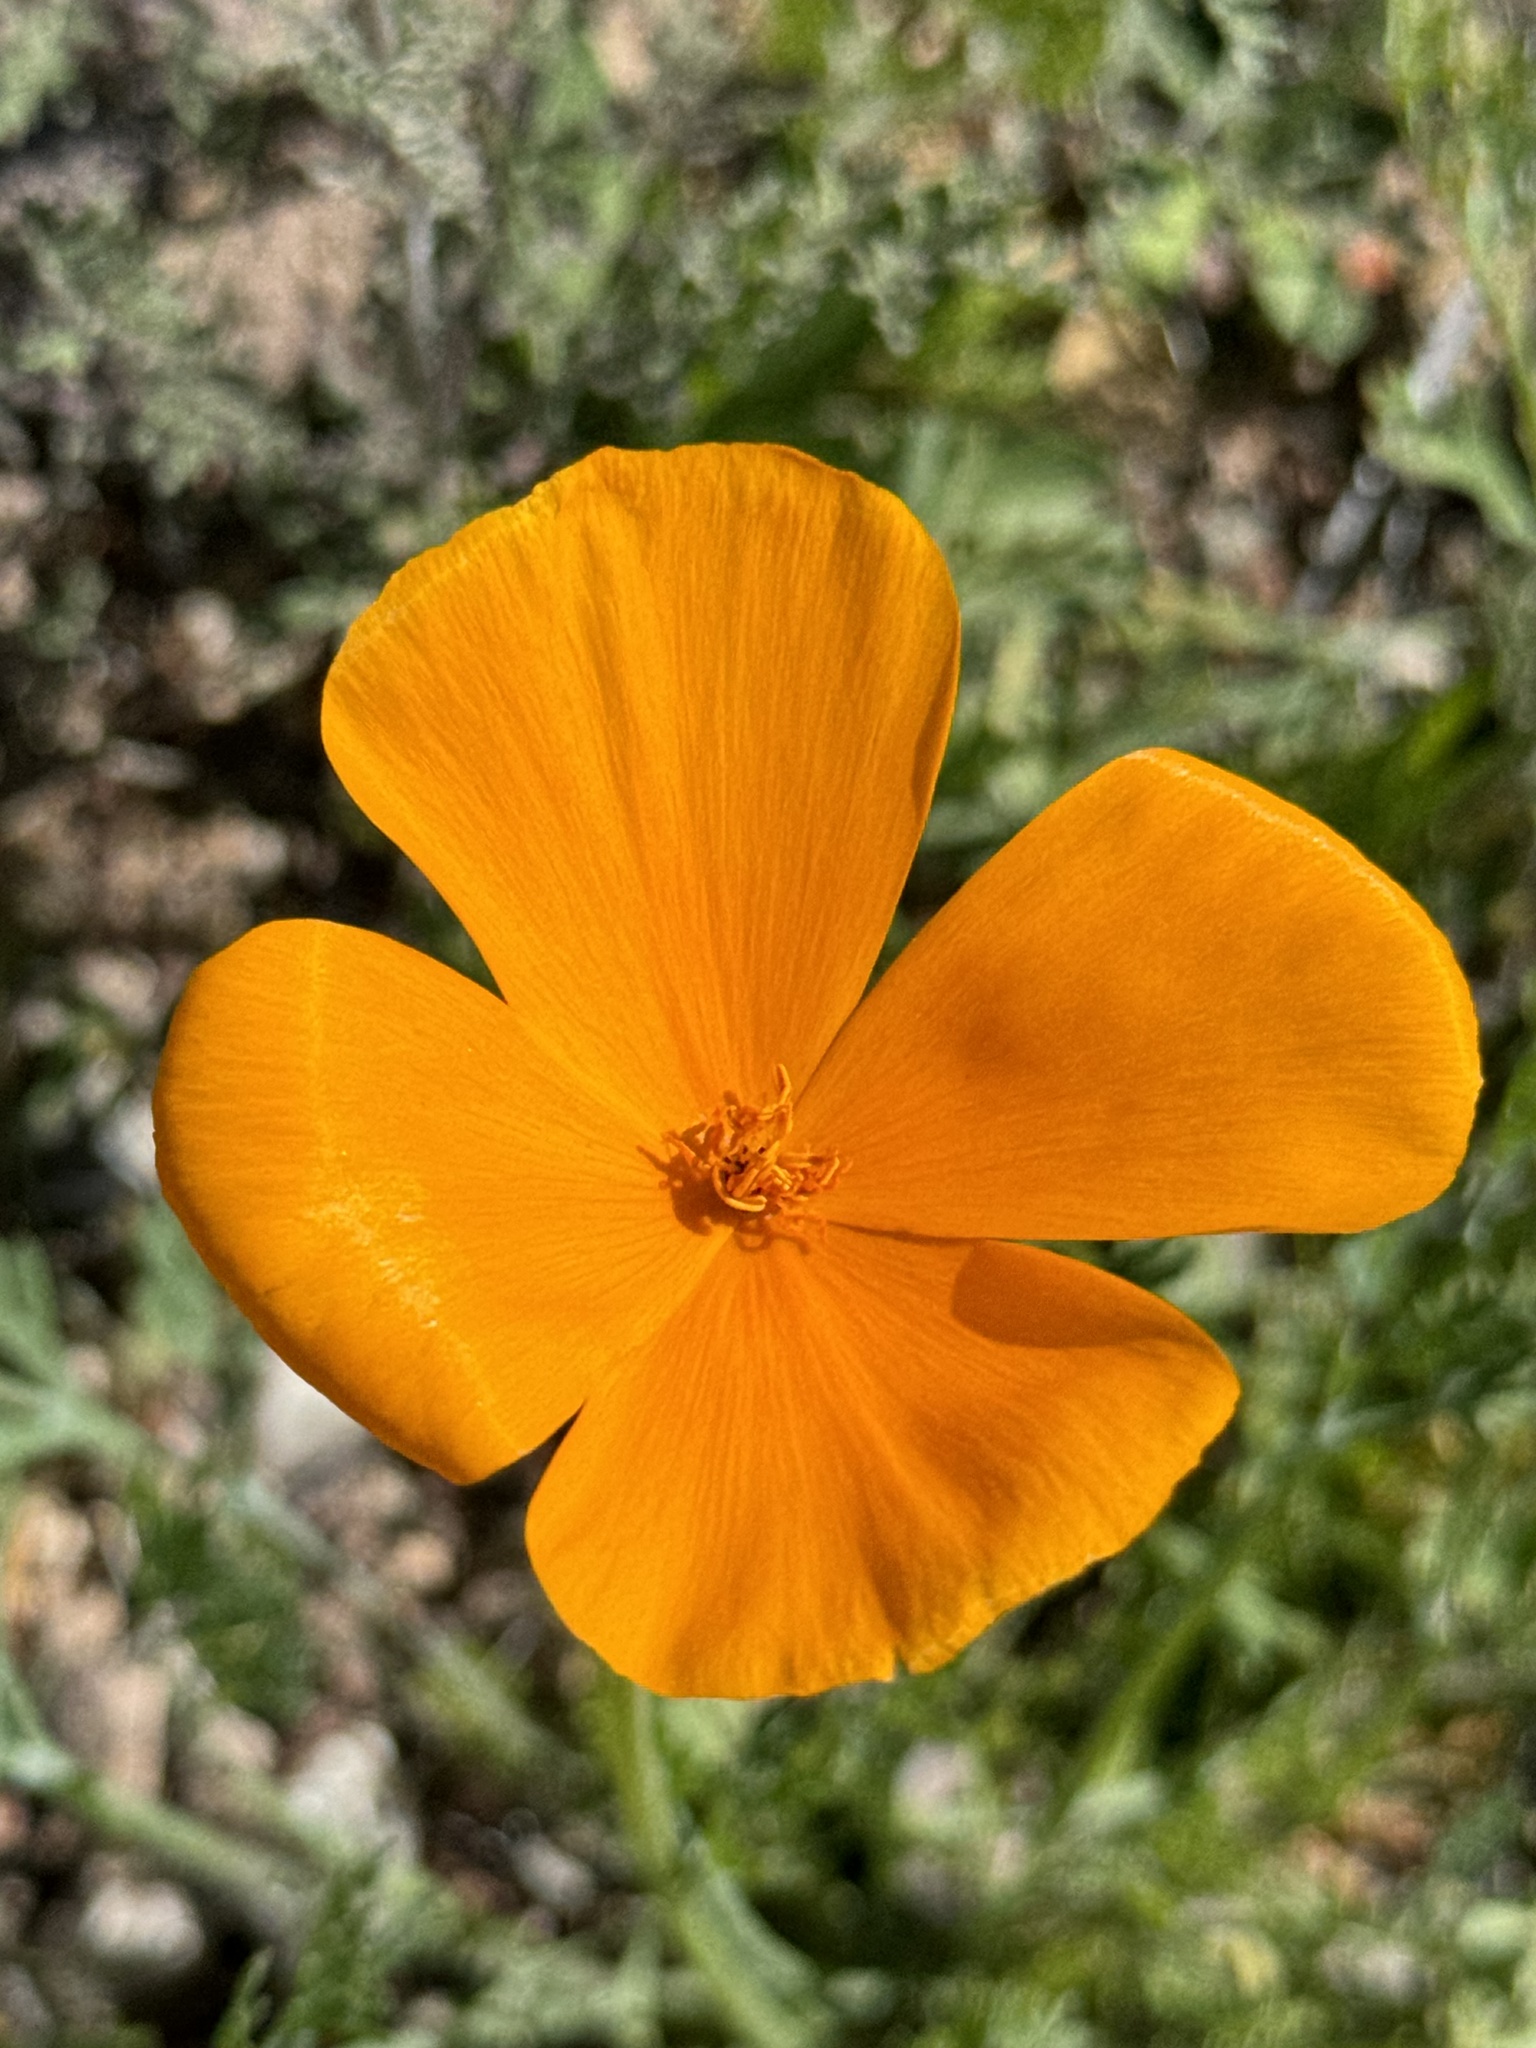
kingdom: Plantae
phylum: Tracheophyta
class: Magnoliopsida
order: Ranunculales
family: Papaveraceae
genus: Eschscholzia
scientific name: Eschscholzia californica
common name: California poppy
